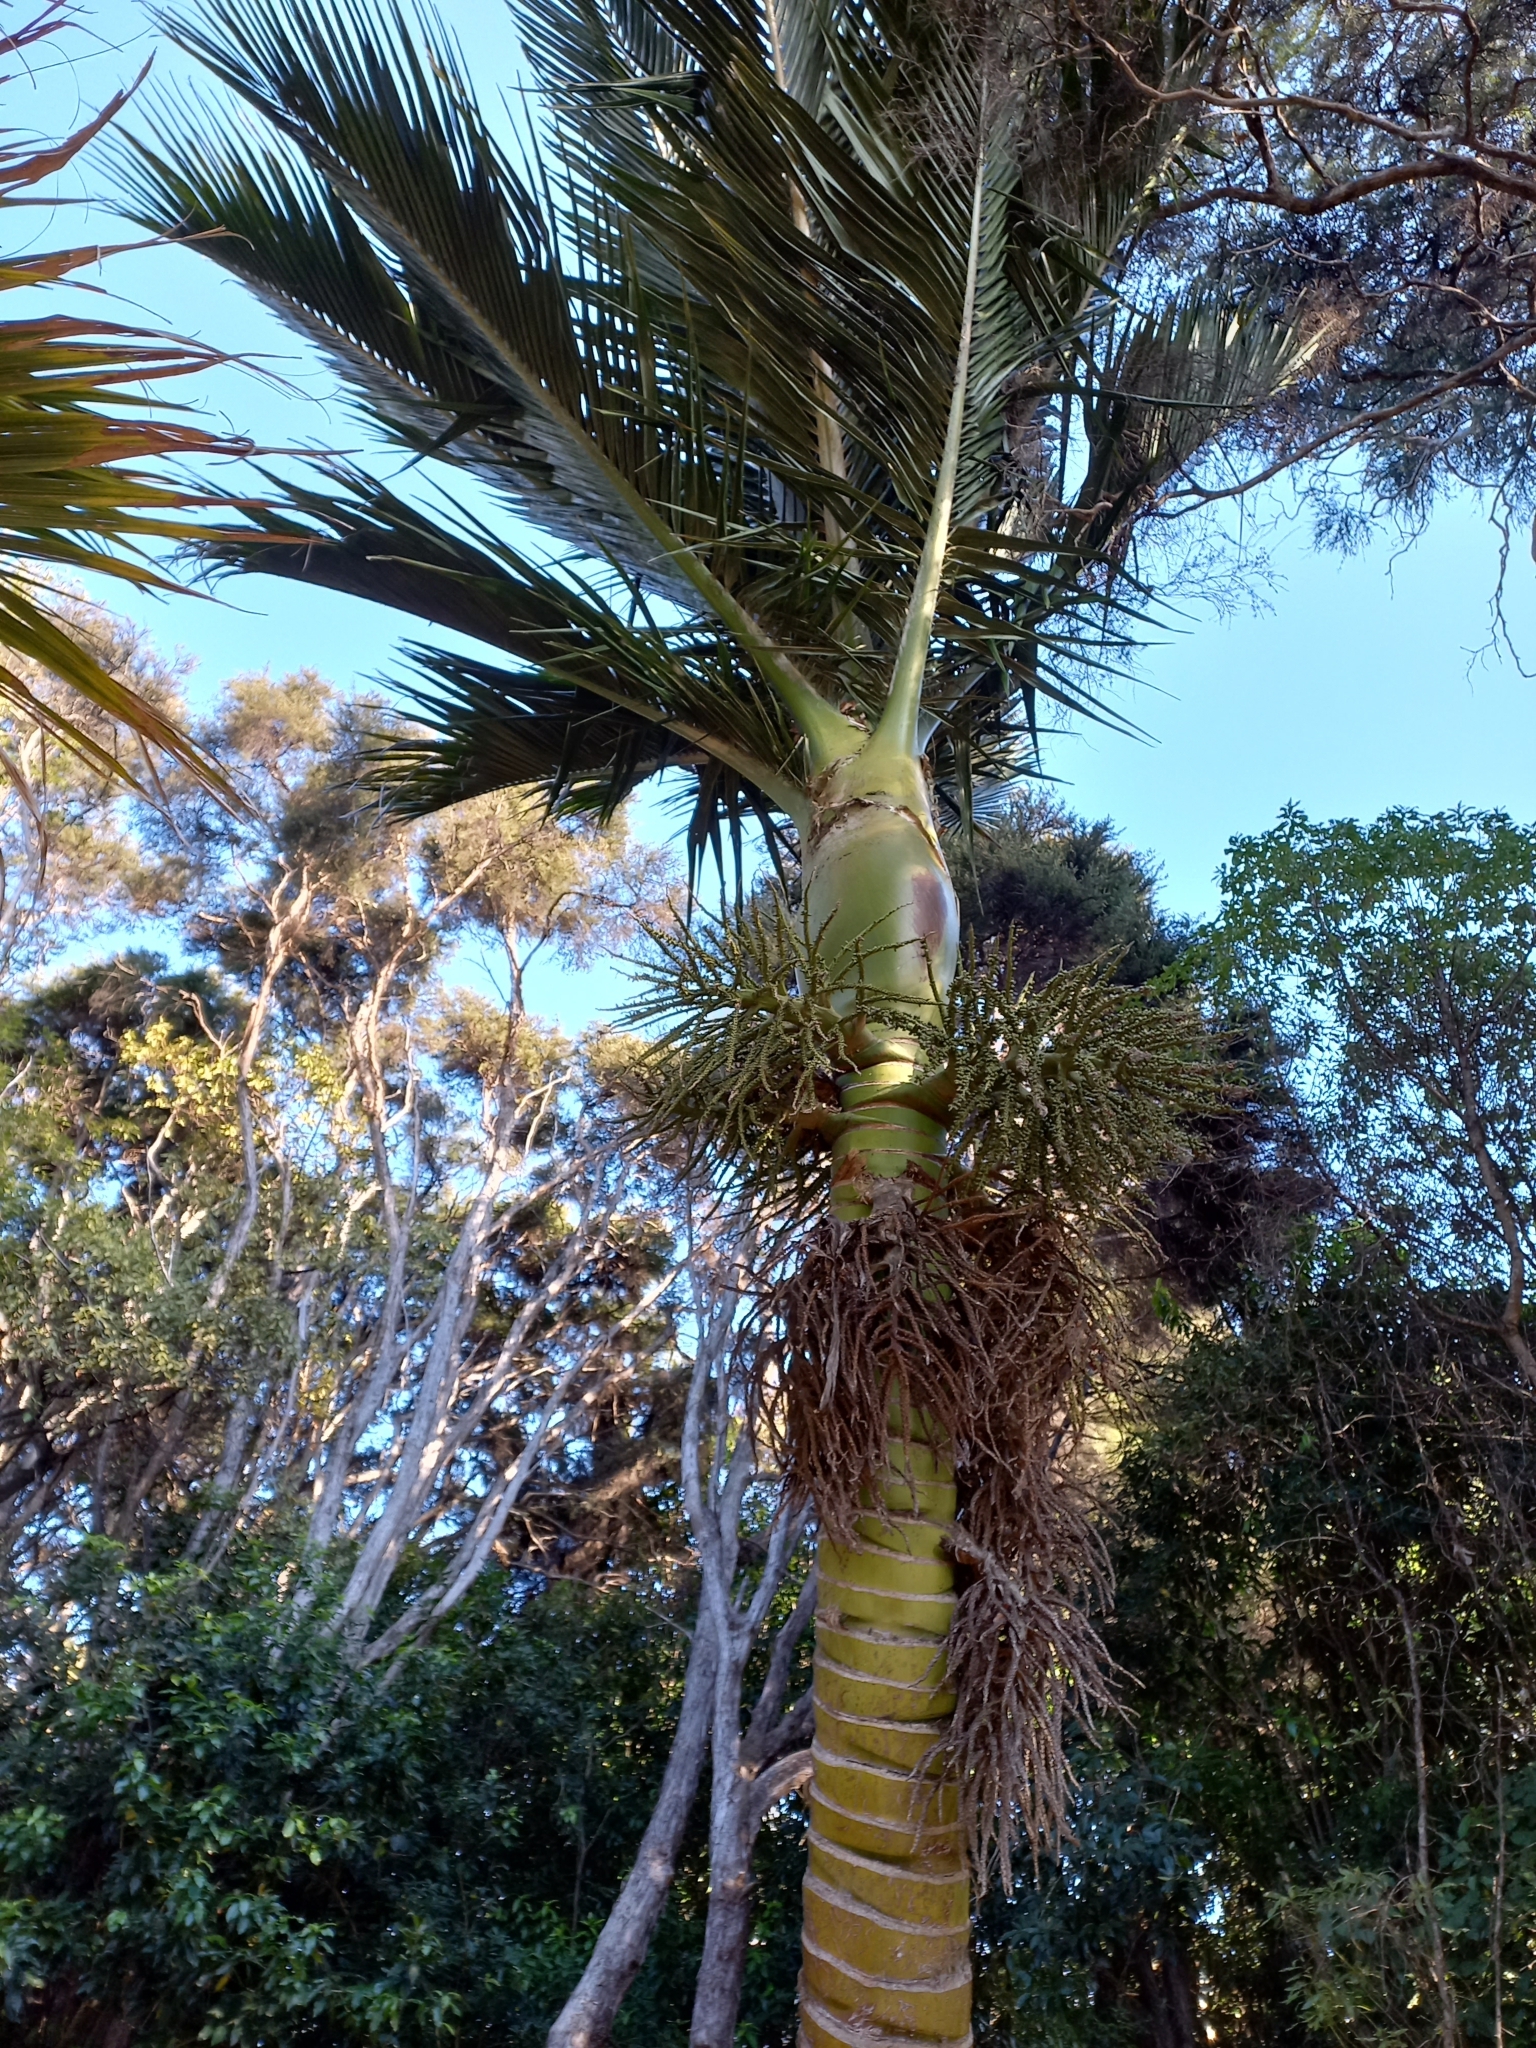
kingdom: Plantae
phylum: Tracheophyta
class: Liliopsida
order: Arecales
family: Arecaceae
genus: Rhopalostylis
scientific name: Rhopalostylis sapida
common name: Feather-duster palm
